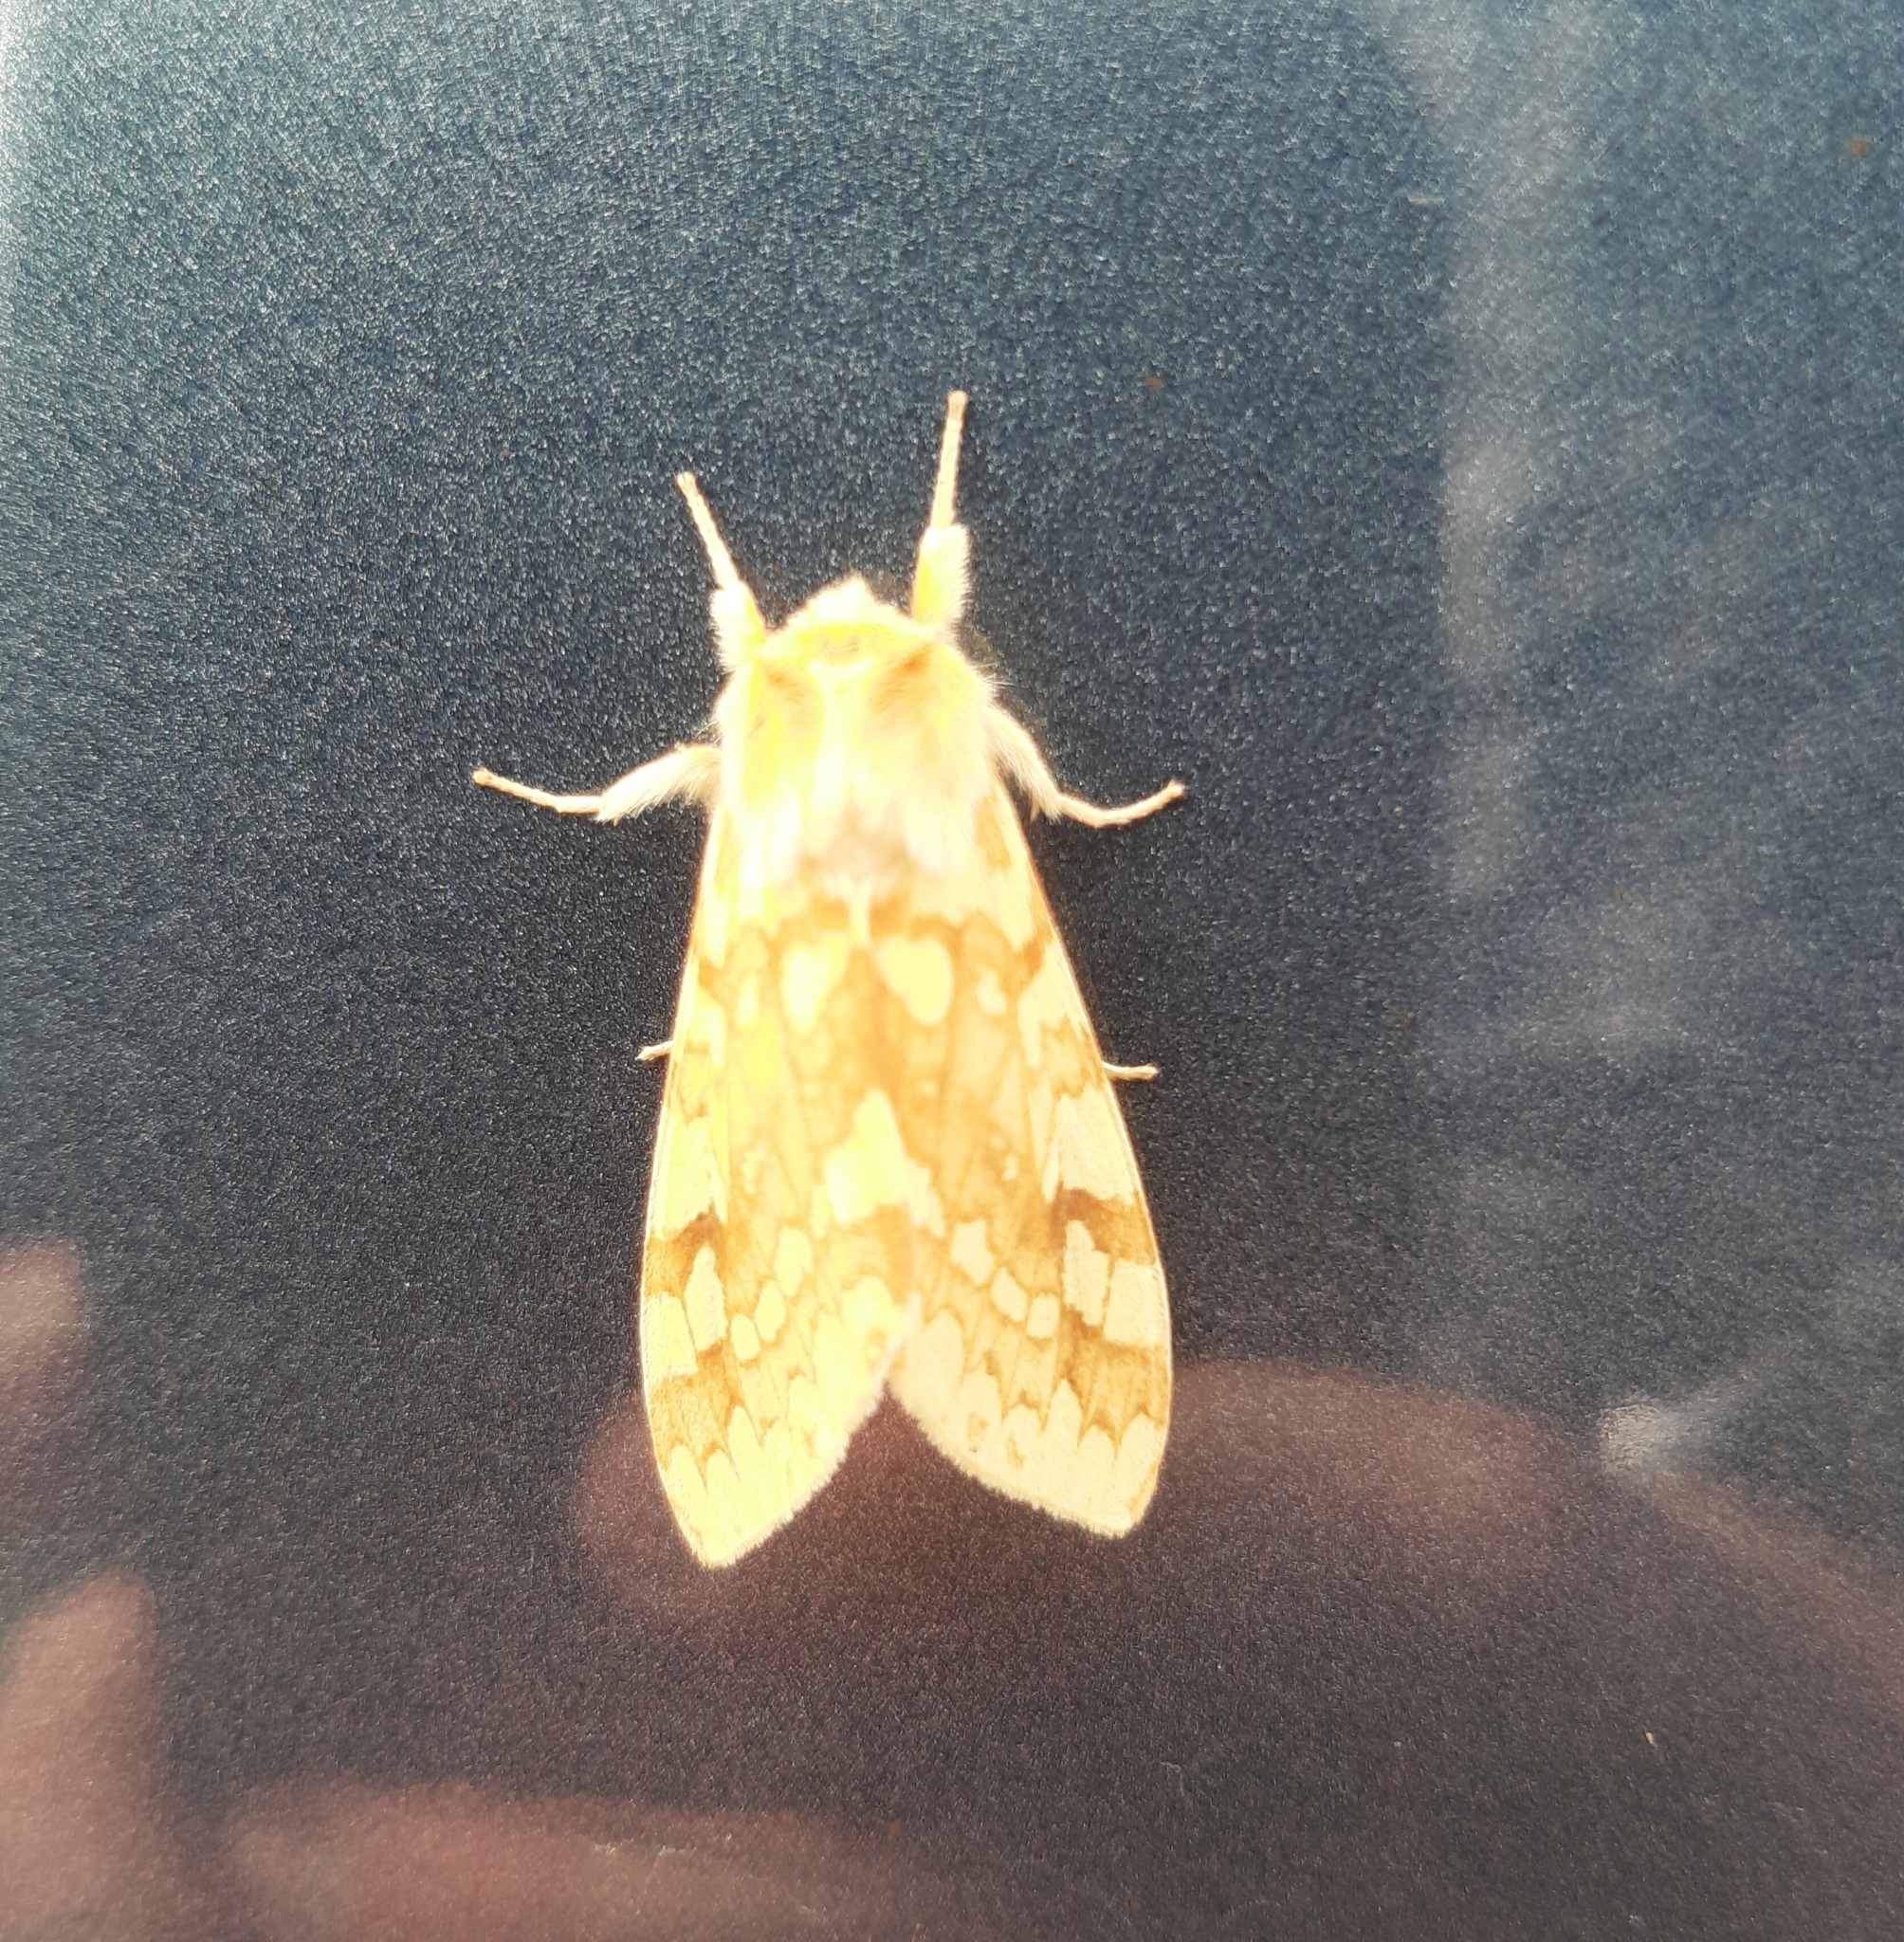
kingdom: Animalia
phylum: Arthropoda
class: Insecta
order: Lepidoptera
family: Erebidae
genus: Lophocampa
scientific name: Lophocampa maculata
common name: Spotted tussock moth
